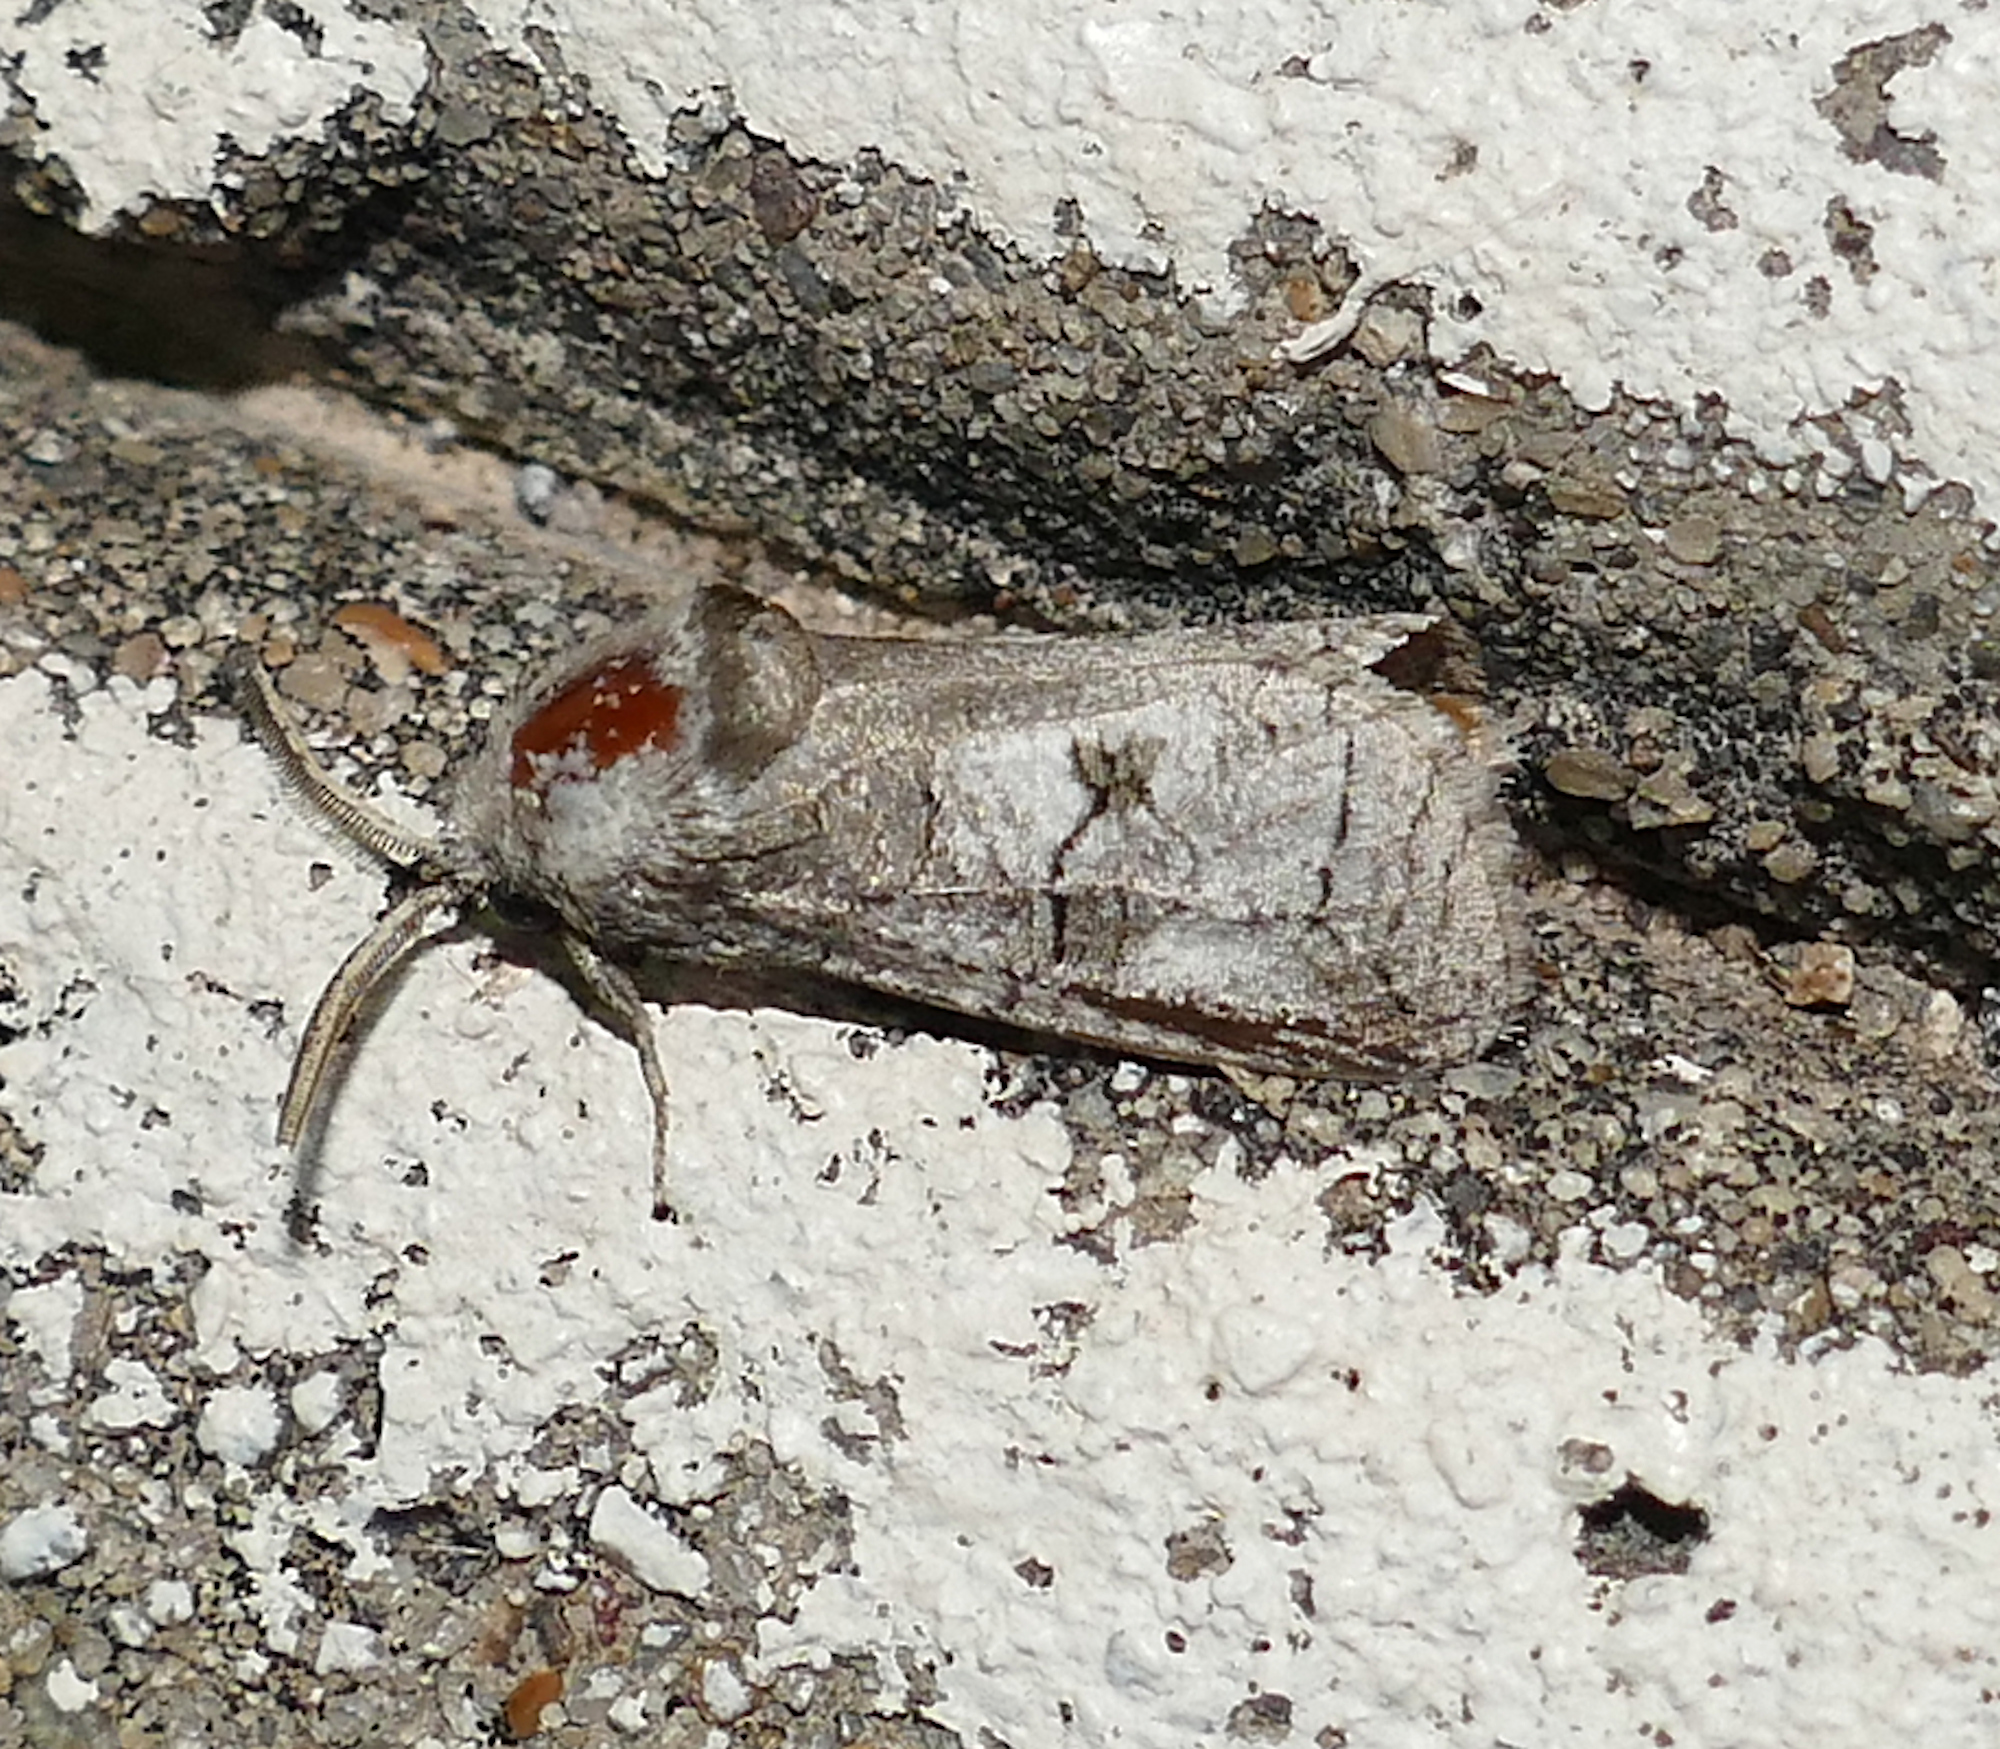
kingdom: Animalia
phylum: Arthropoda
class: Insecta
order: Lepidoptera
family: Cossidae
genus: Fania
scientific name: Fania nanus
